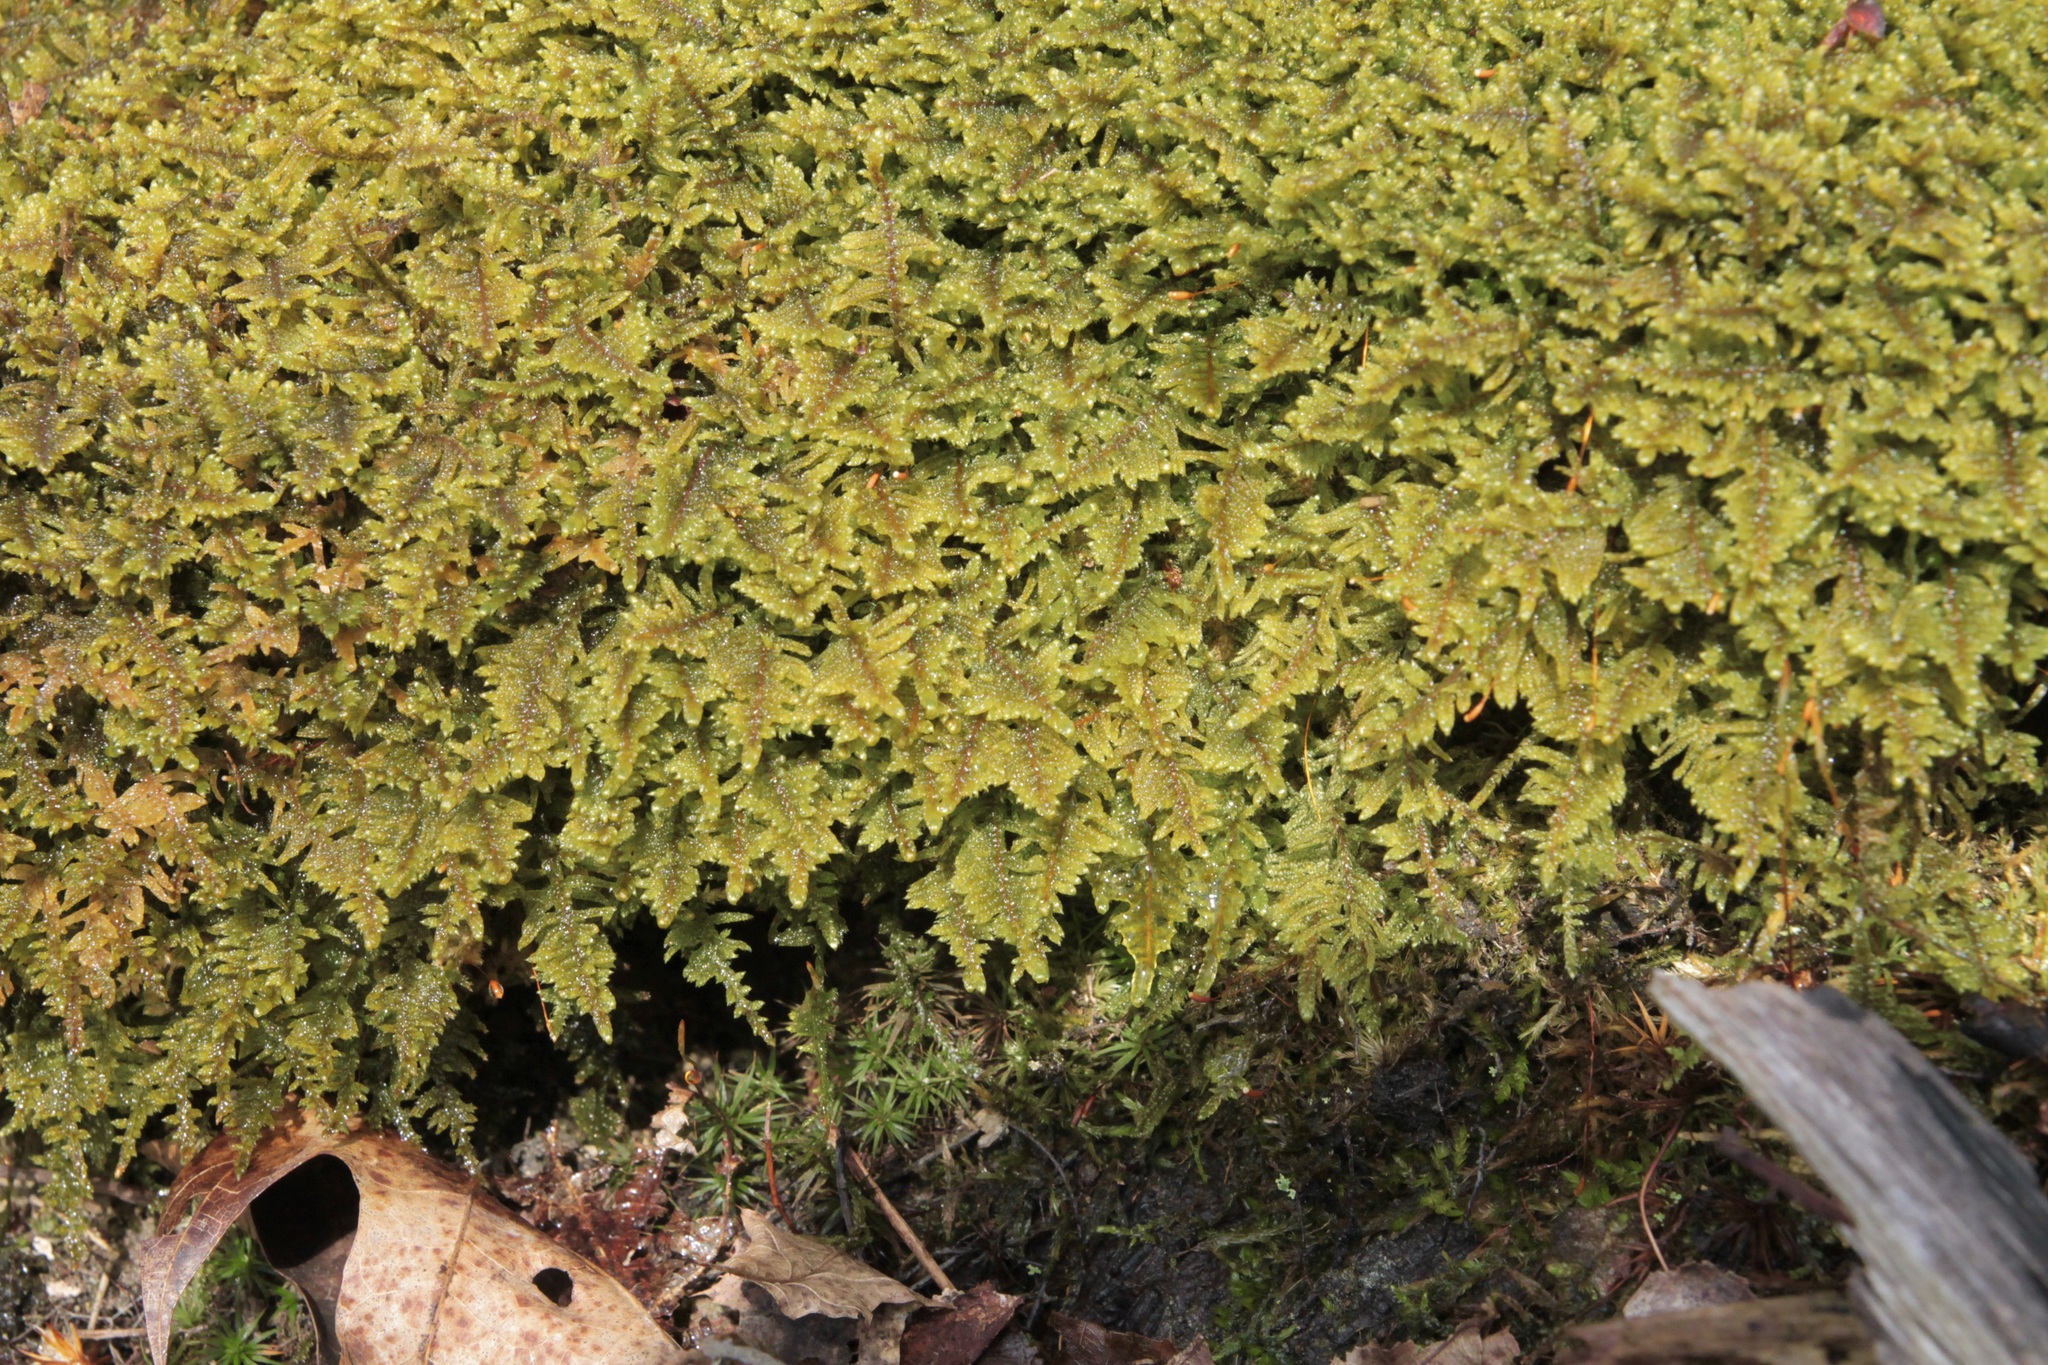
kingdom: Plantae
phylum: Bryophyta
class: Bryopsida
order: Hypnales
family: Callicladiaceae
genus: Callicladium
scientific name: Callicladium imponens
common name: Brocade moss
